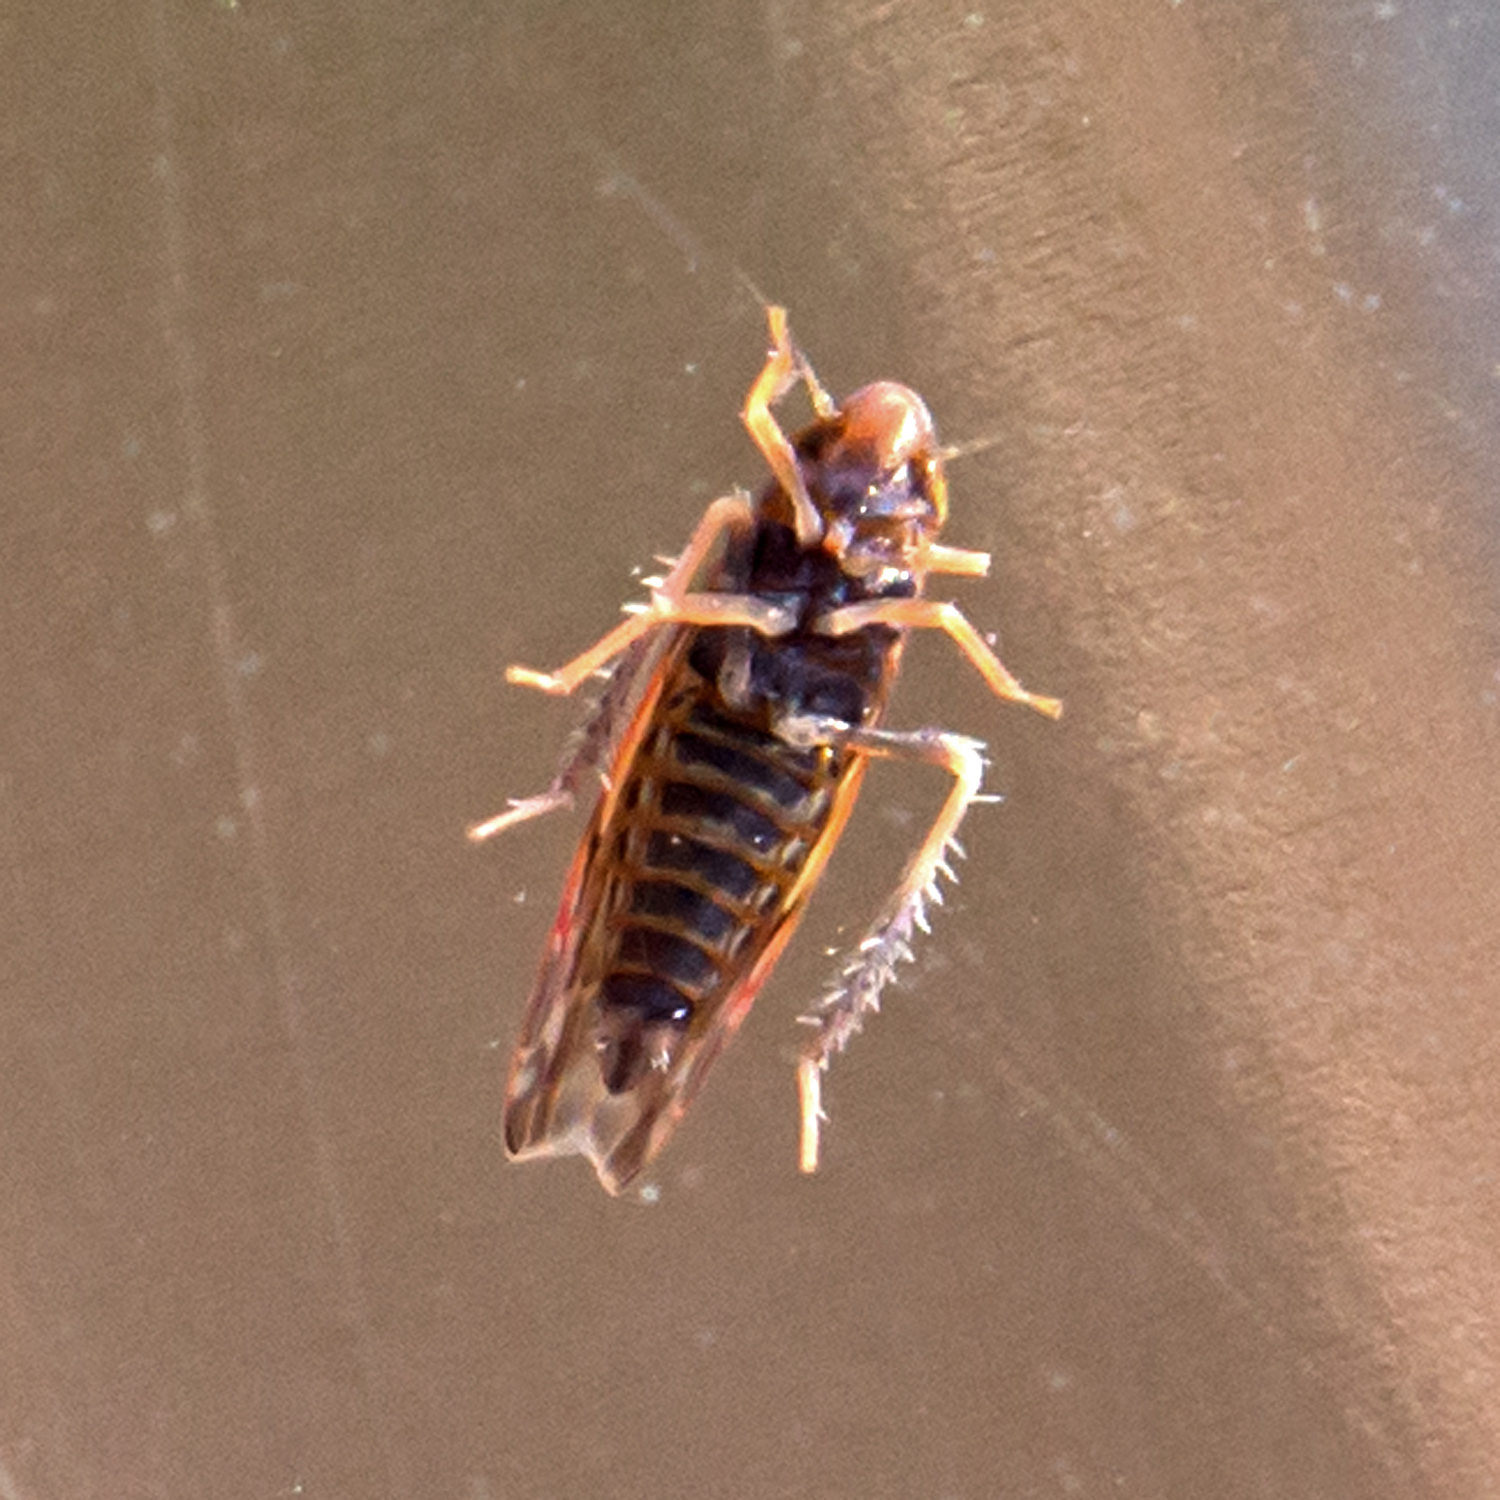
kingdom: Animalia
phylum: Arthropoda
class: Insecta
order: Hemiptera
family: Cicadellidae
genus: Erasmoneura
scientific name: Erasmoneura vulnerata
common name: The wounded leafhopper
